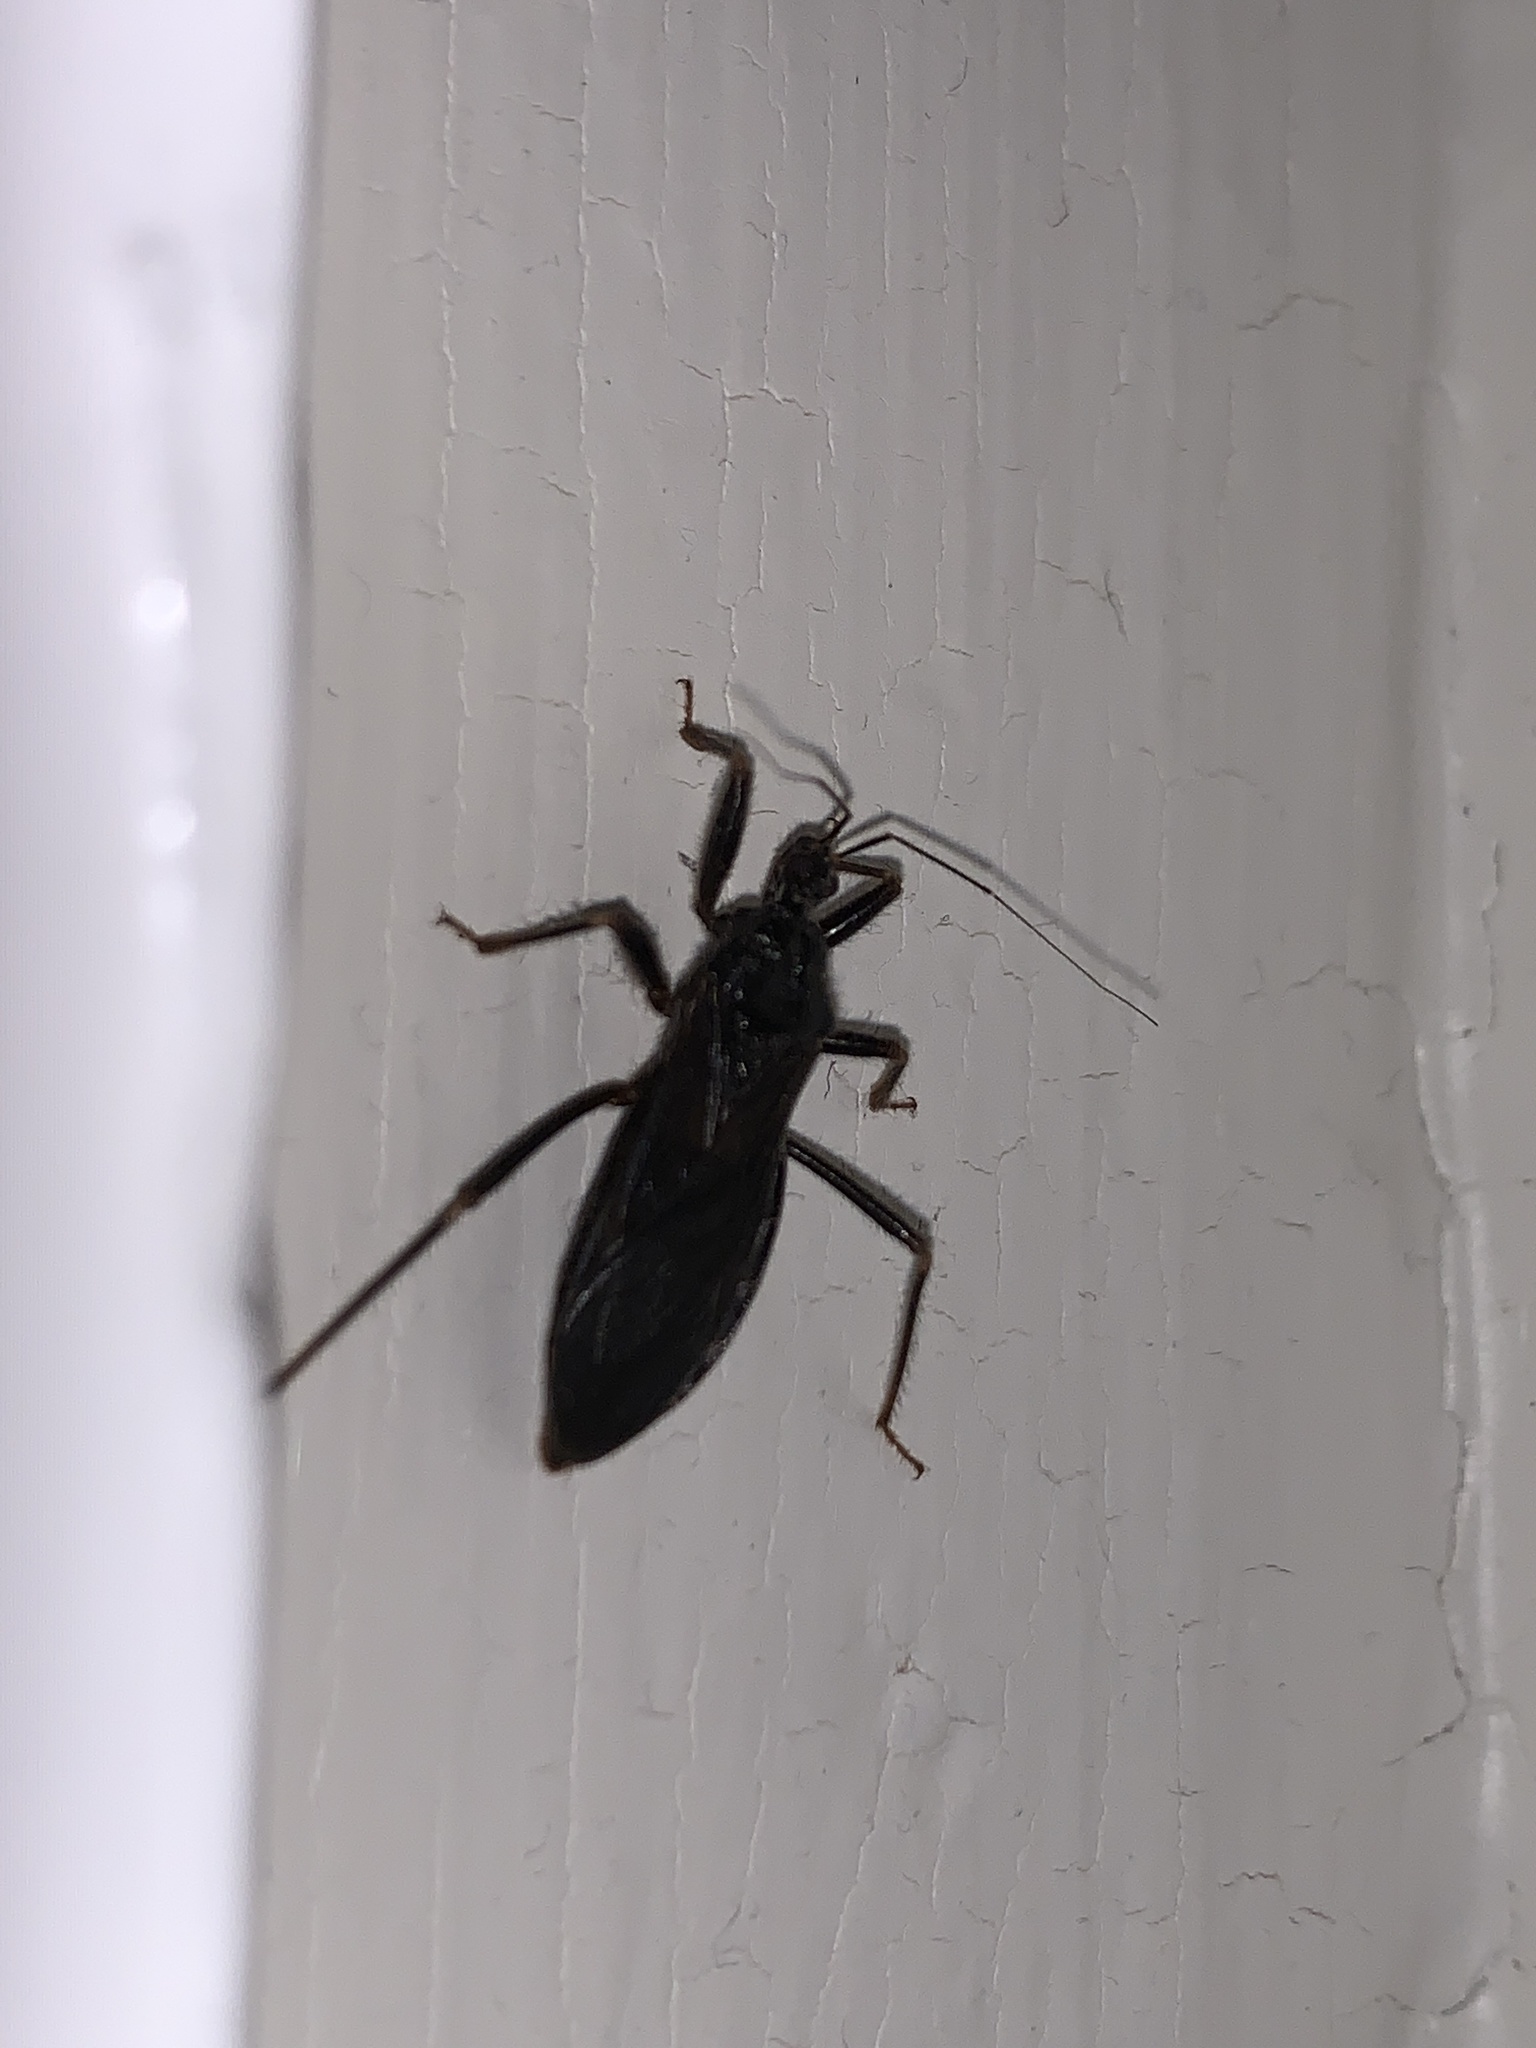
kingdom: Animalia
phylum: Arthropoda
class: Insecta
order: Hemiptera
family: Reduviidae
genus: Reduvius
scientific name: Reduvius personatus
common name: Masked hunter
